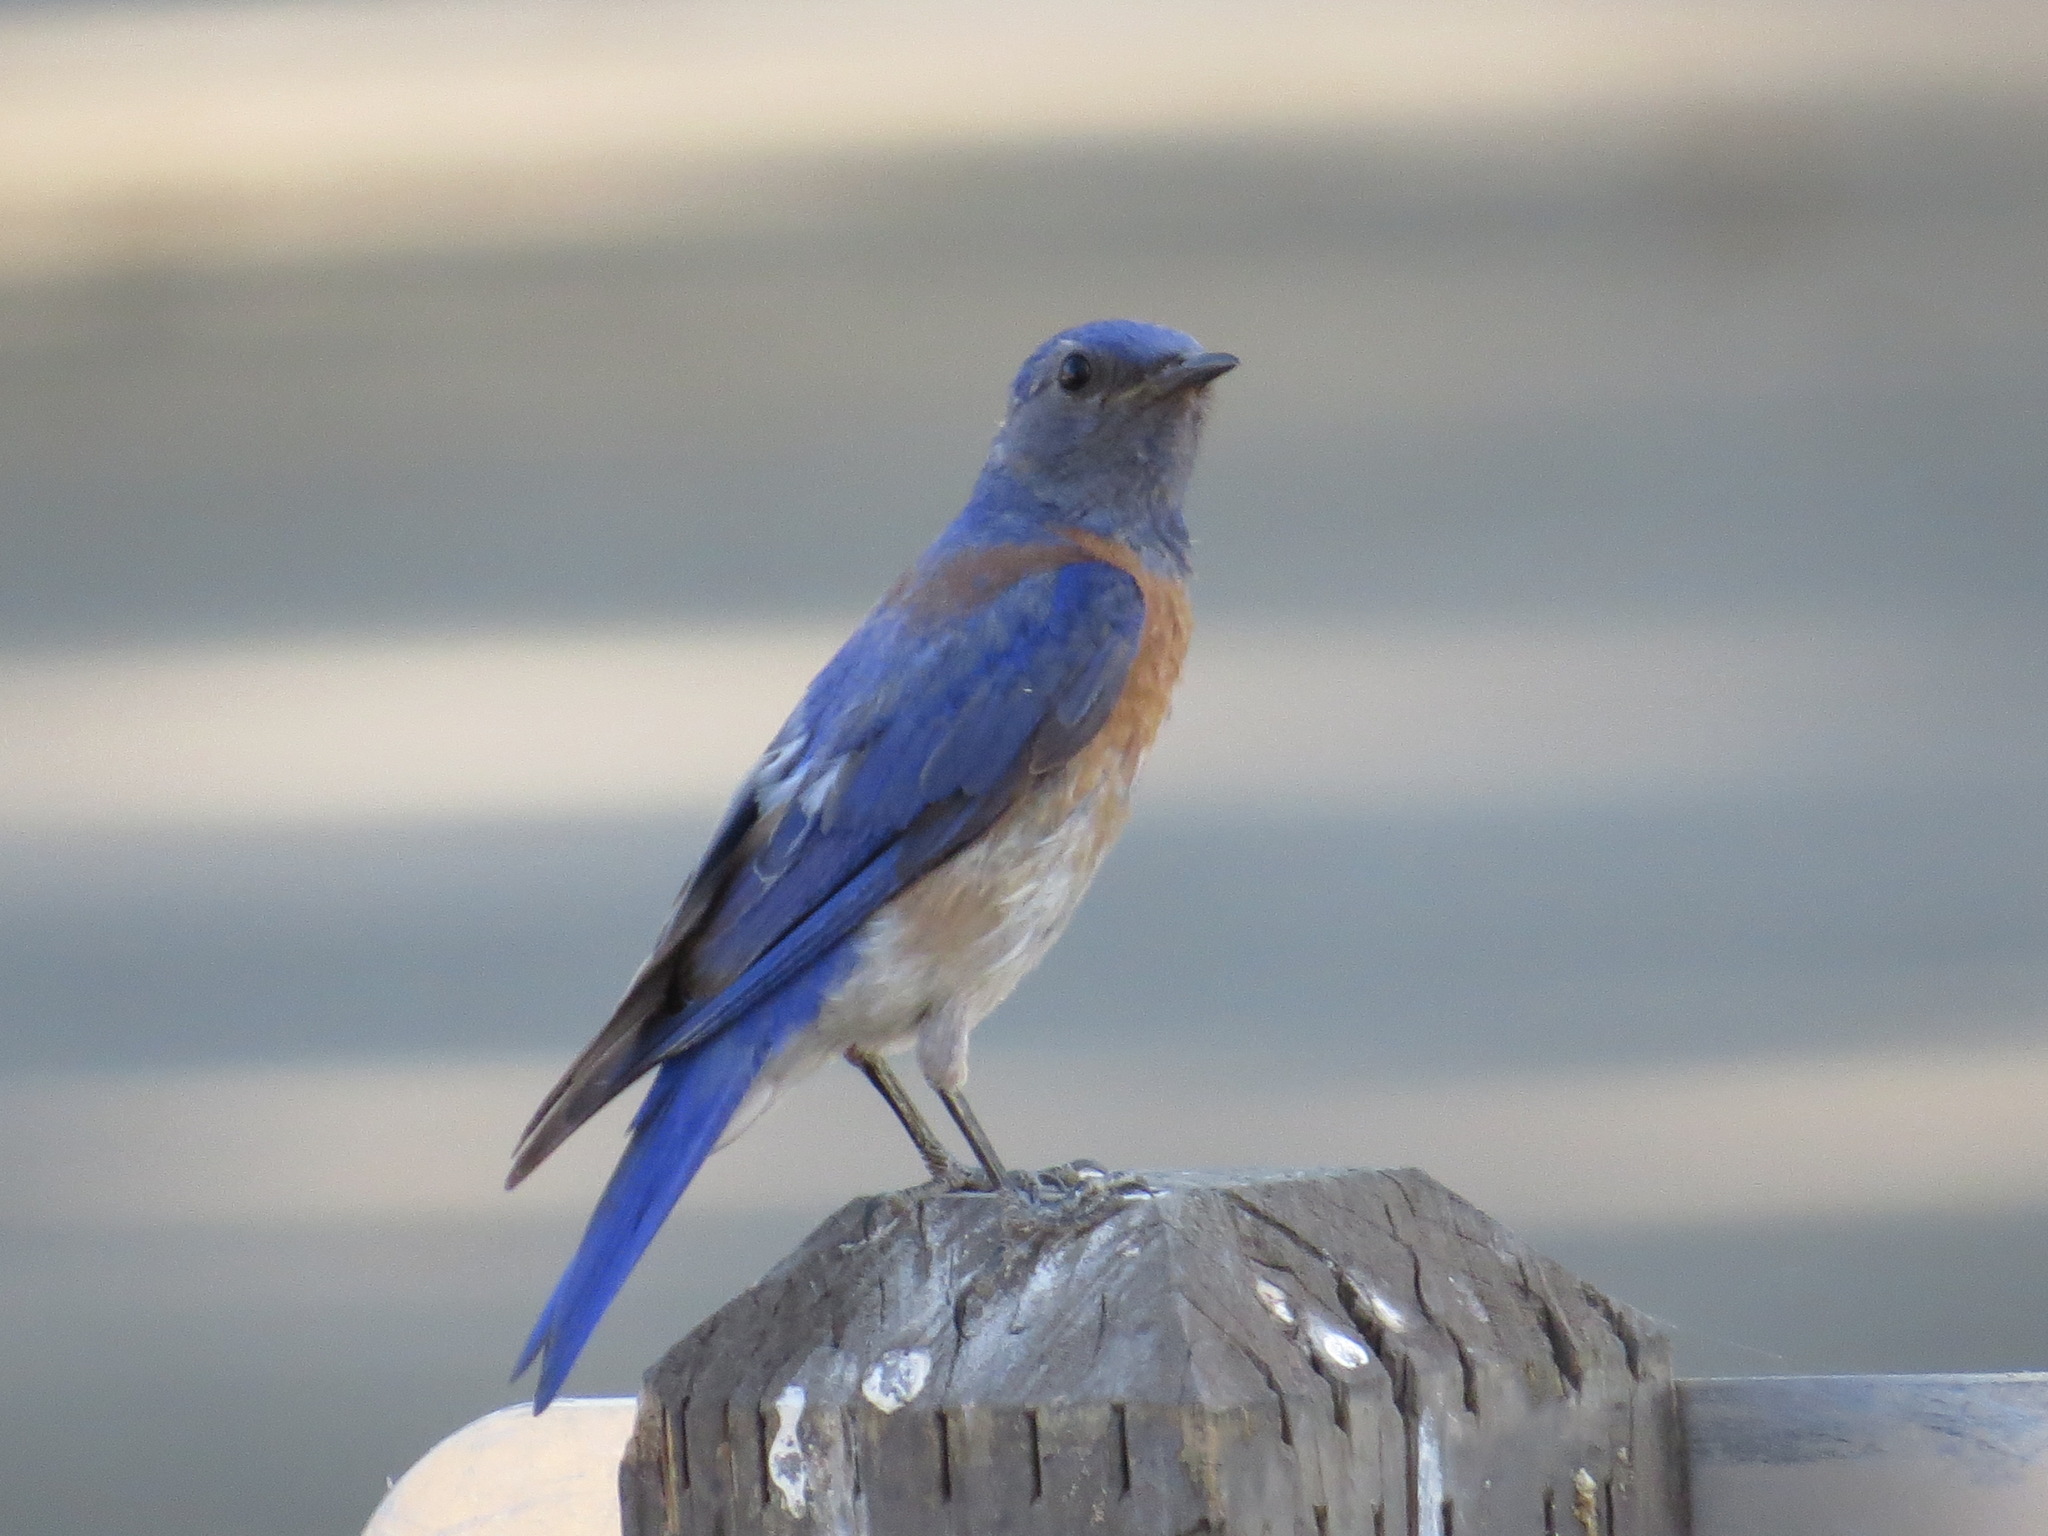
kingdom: Animalia
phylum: Chordata
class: Aves
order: Passeriformes
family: Turdidae
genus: Sialia
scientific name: Sialia mexicana
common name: Western bluebird
